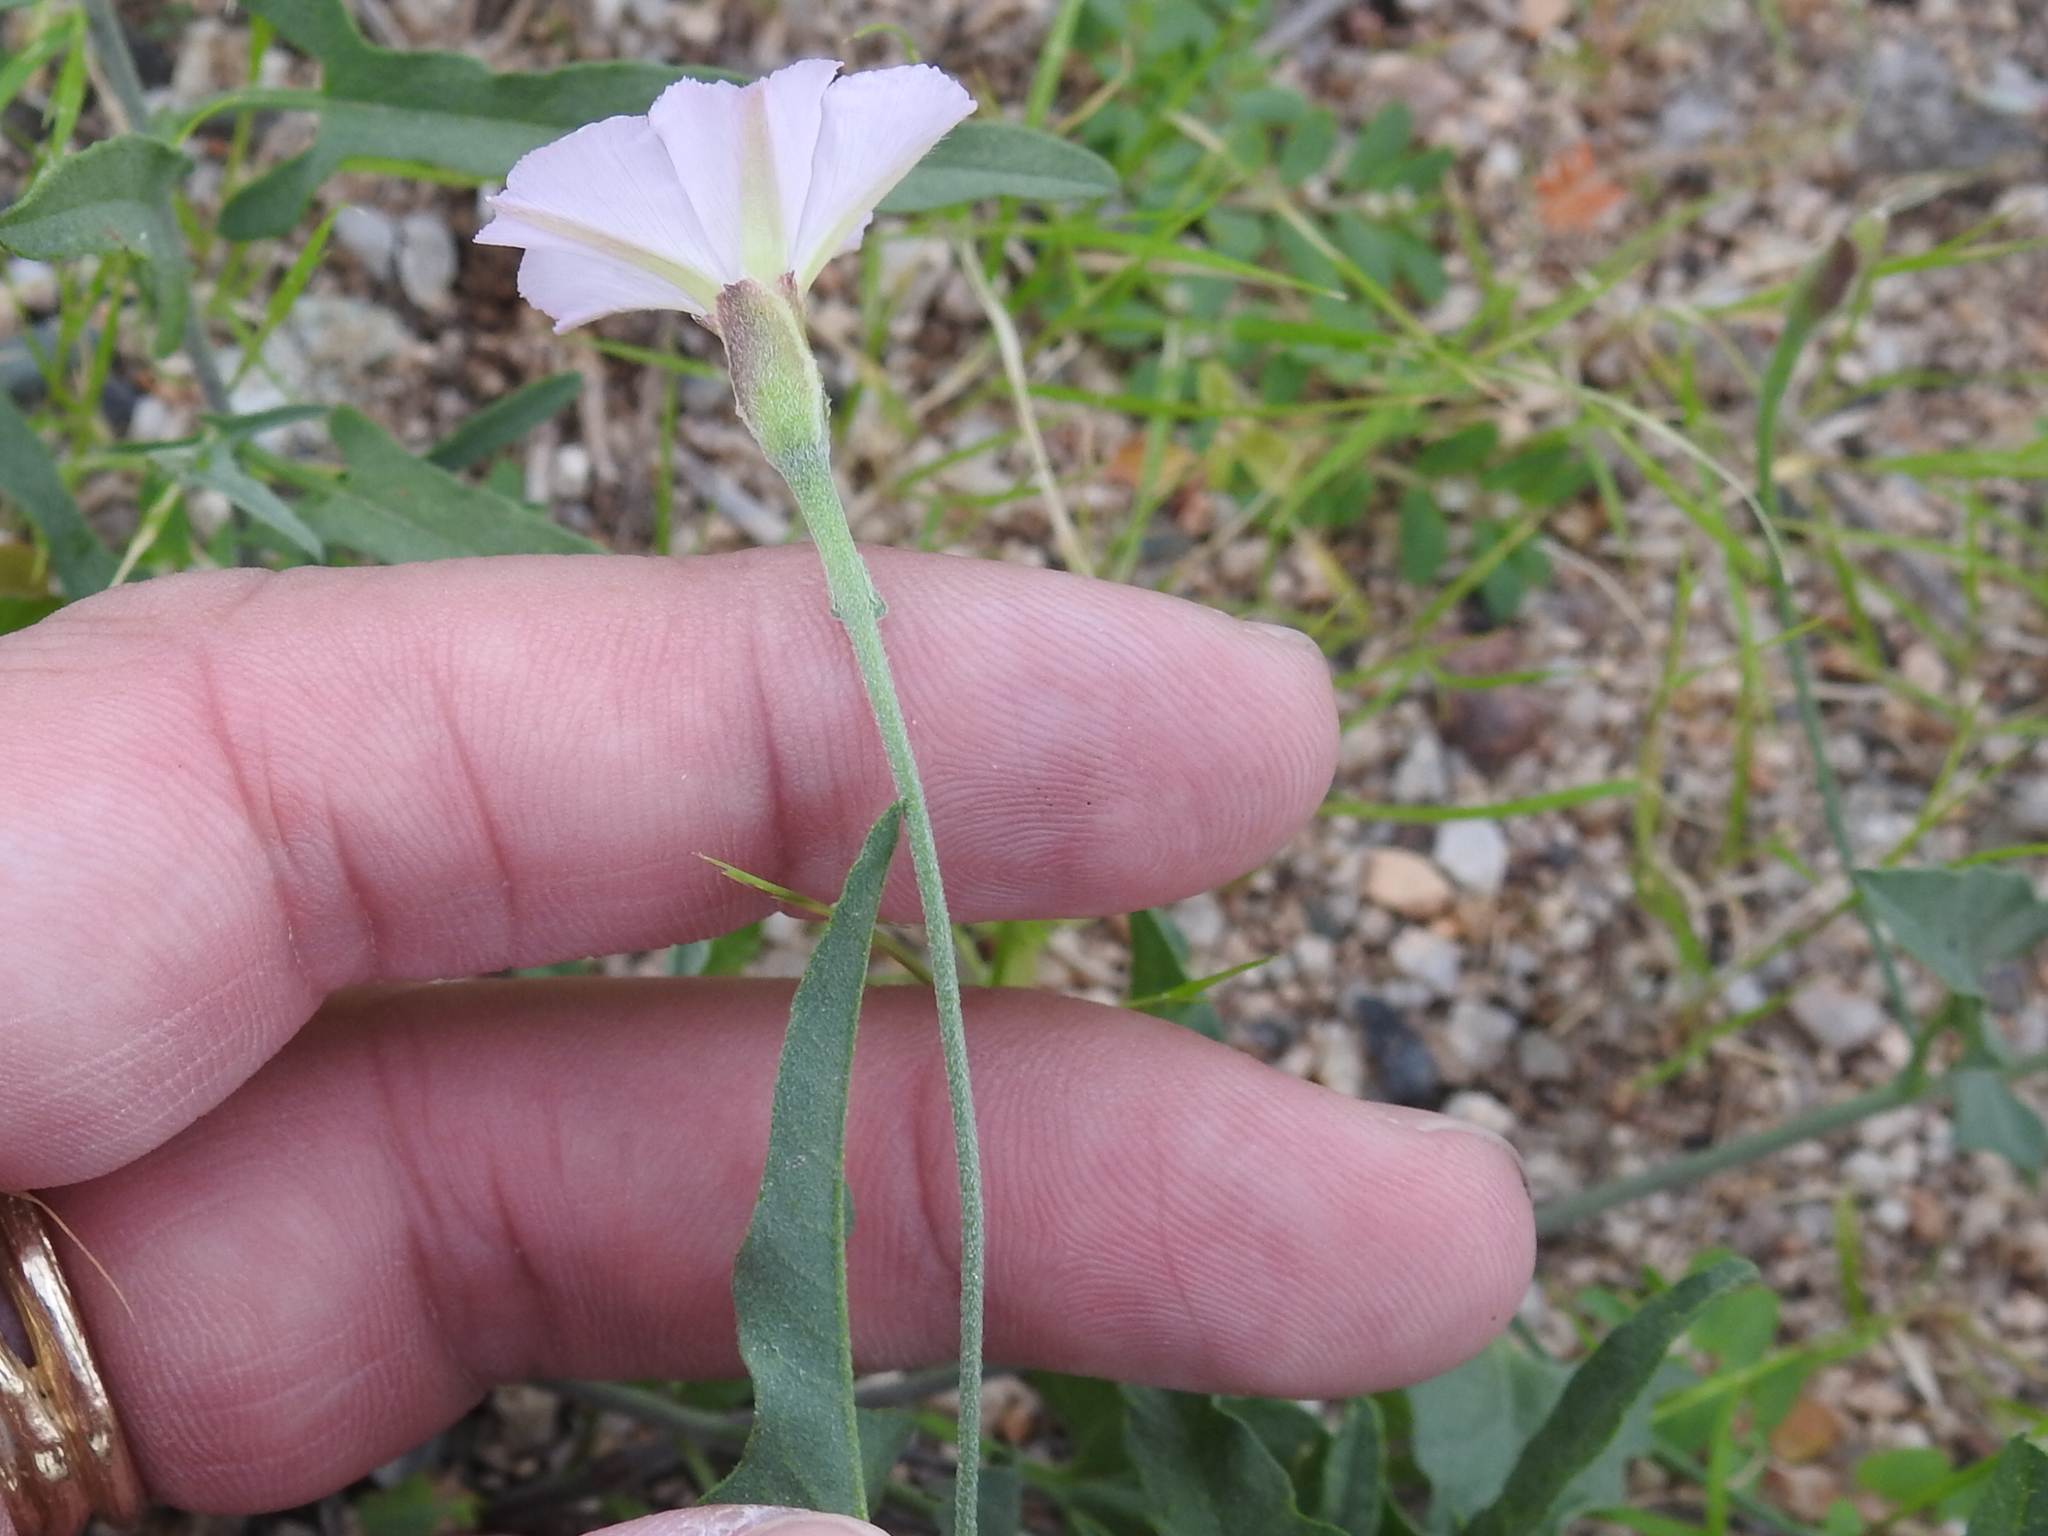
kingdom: Plantae
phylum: Tracheophyta
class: Magnoliopsida
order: Solanales
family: Convolvulaceae
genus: Convolvulus
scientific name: Convolvulus equitans
